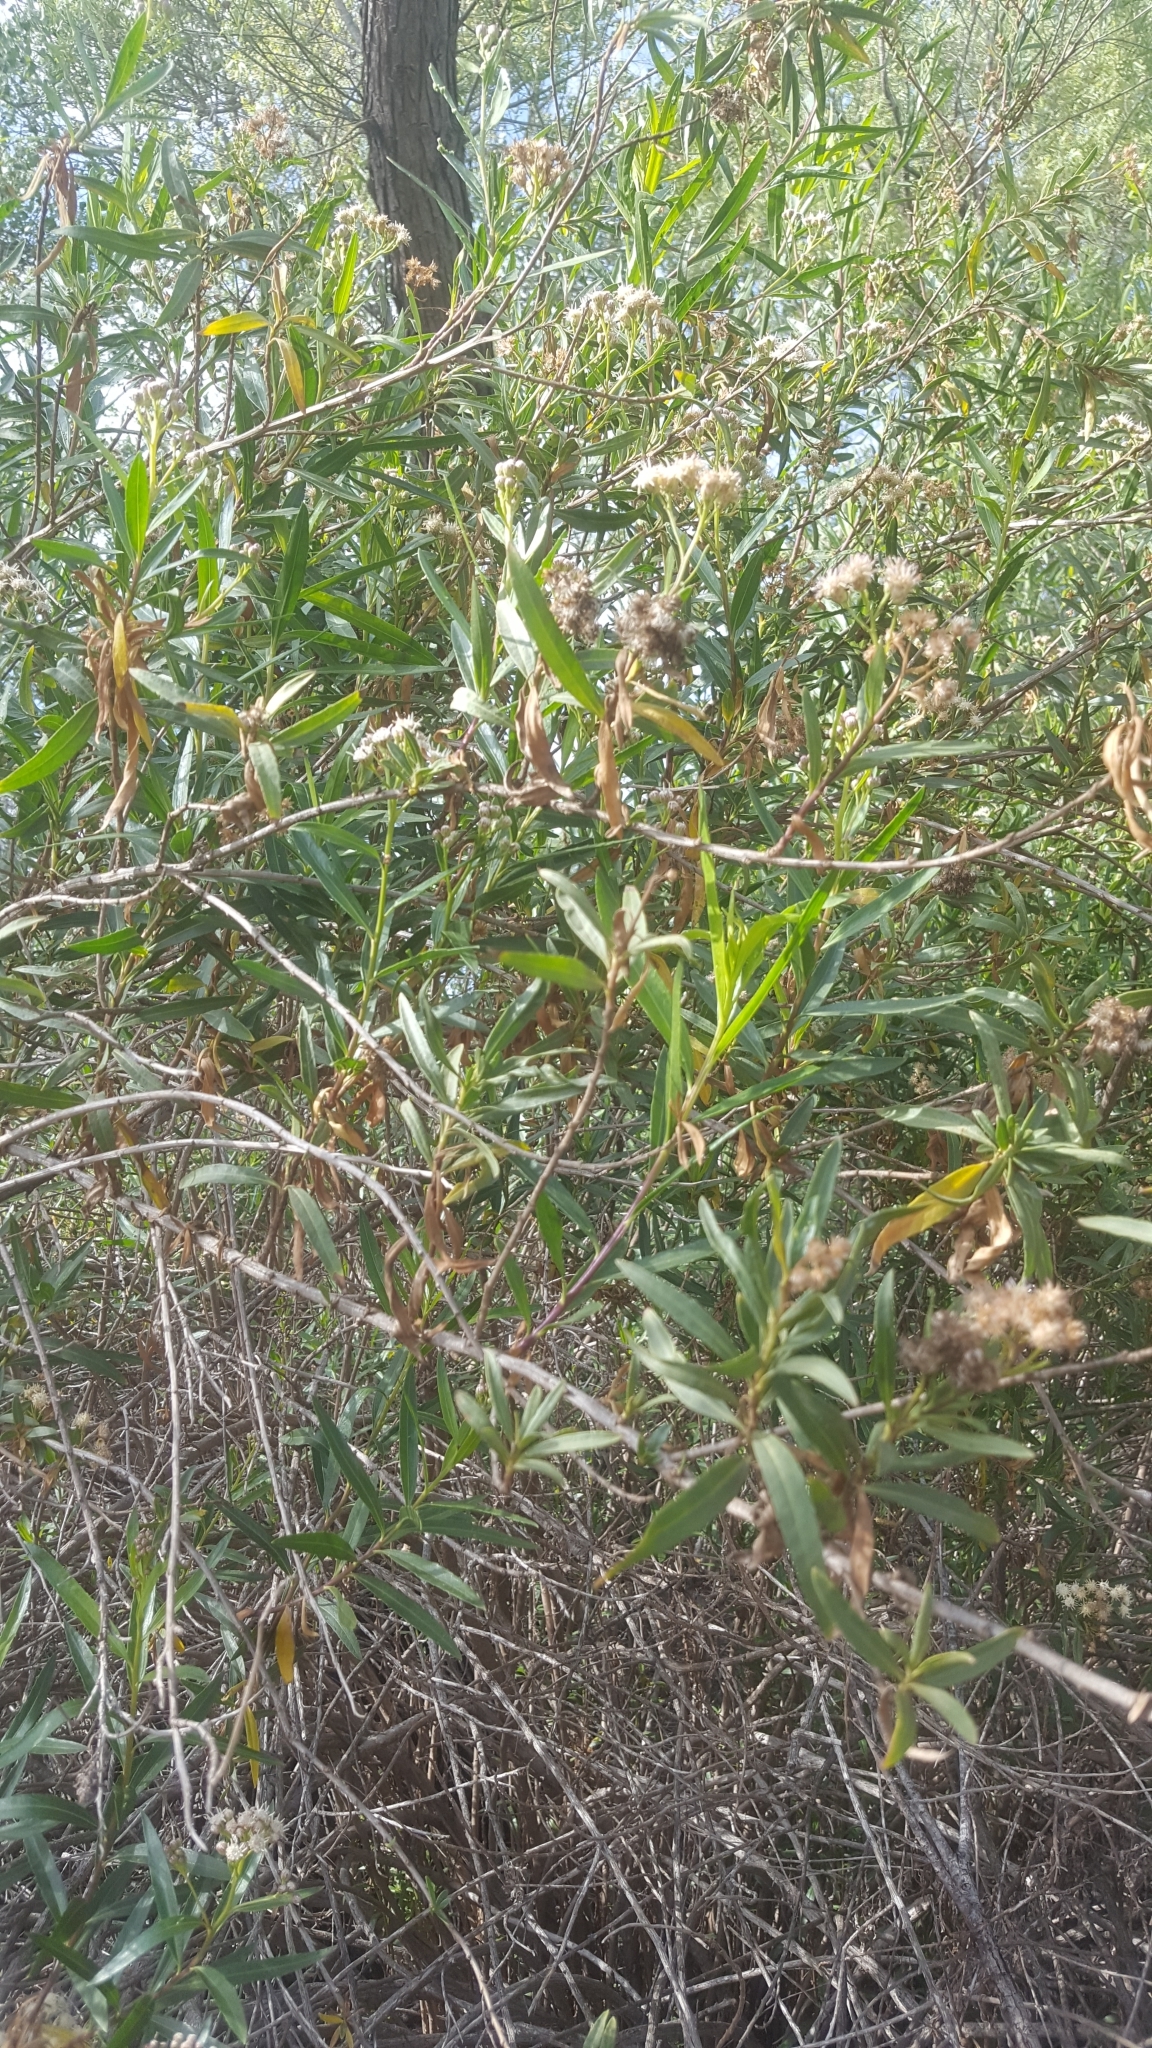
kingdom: Plantae
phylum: Tracheophyta
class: Magnoliopsida
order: Asterales
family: Asteraceae
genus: Baccharis
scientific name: Baccharis salicifolia
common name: Sticky baccharis
